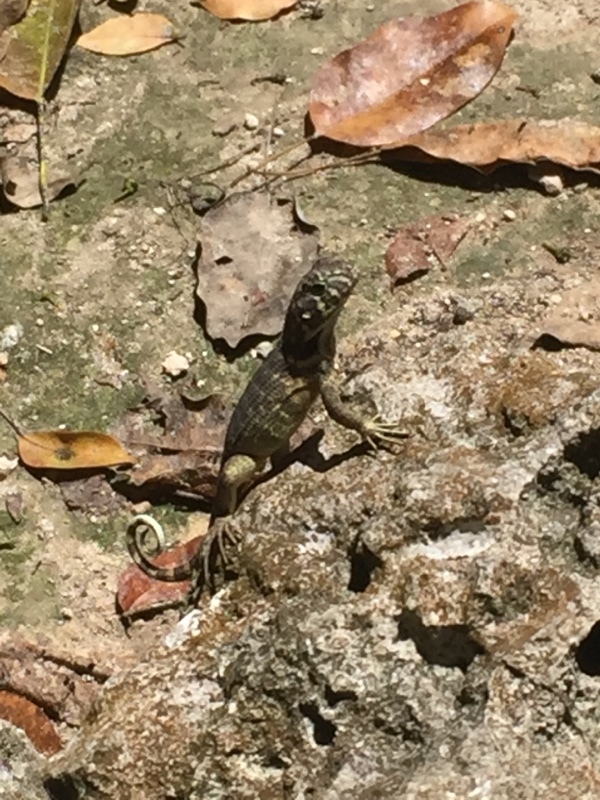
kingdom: Animalia
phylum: Chordata
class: Squamata
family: Leiocephalidae
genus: Leiocephalus
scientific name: Leiocephalus carinatus
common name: Northern curly-tailed lizard
